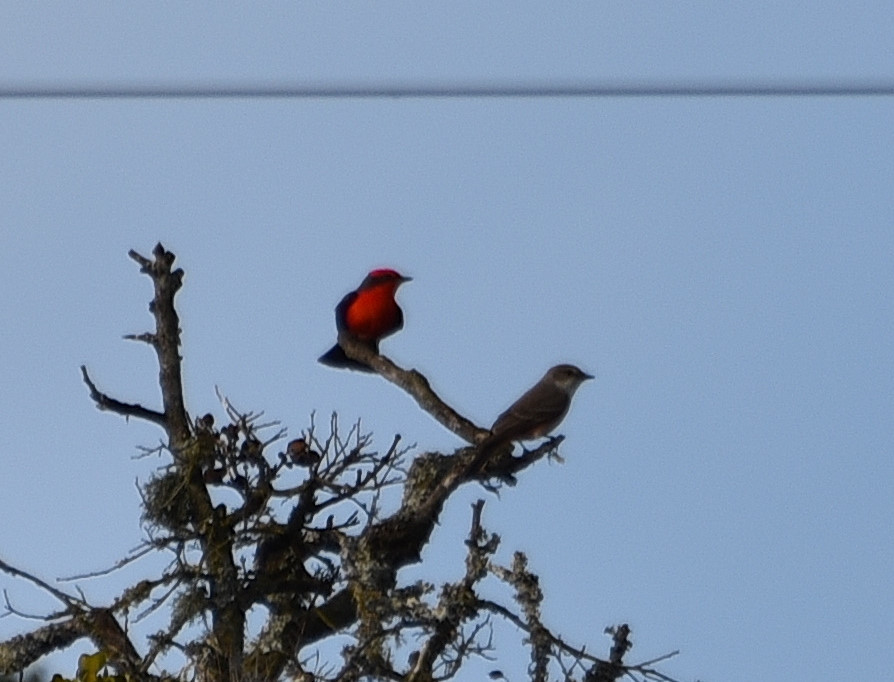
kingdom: Animalia
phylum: Chordata
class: Aves
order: Passeriformes
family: Tyrannidae
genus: Pyrocephalus
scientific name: Pyrocephalus rubinus
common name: Vermilion flycatcher
